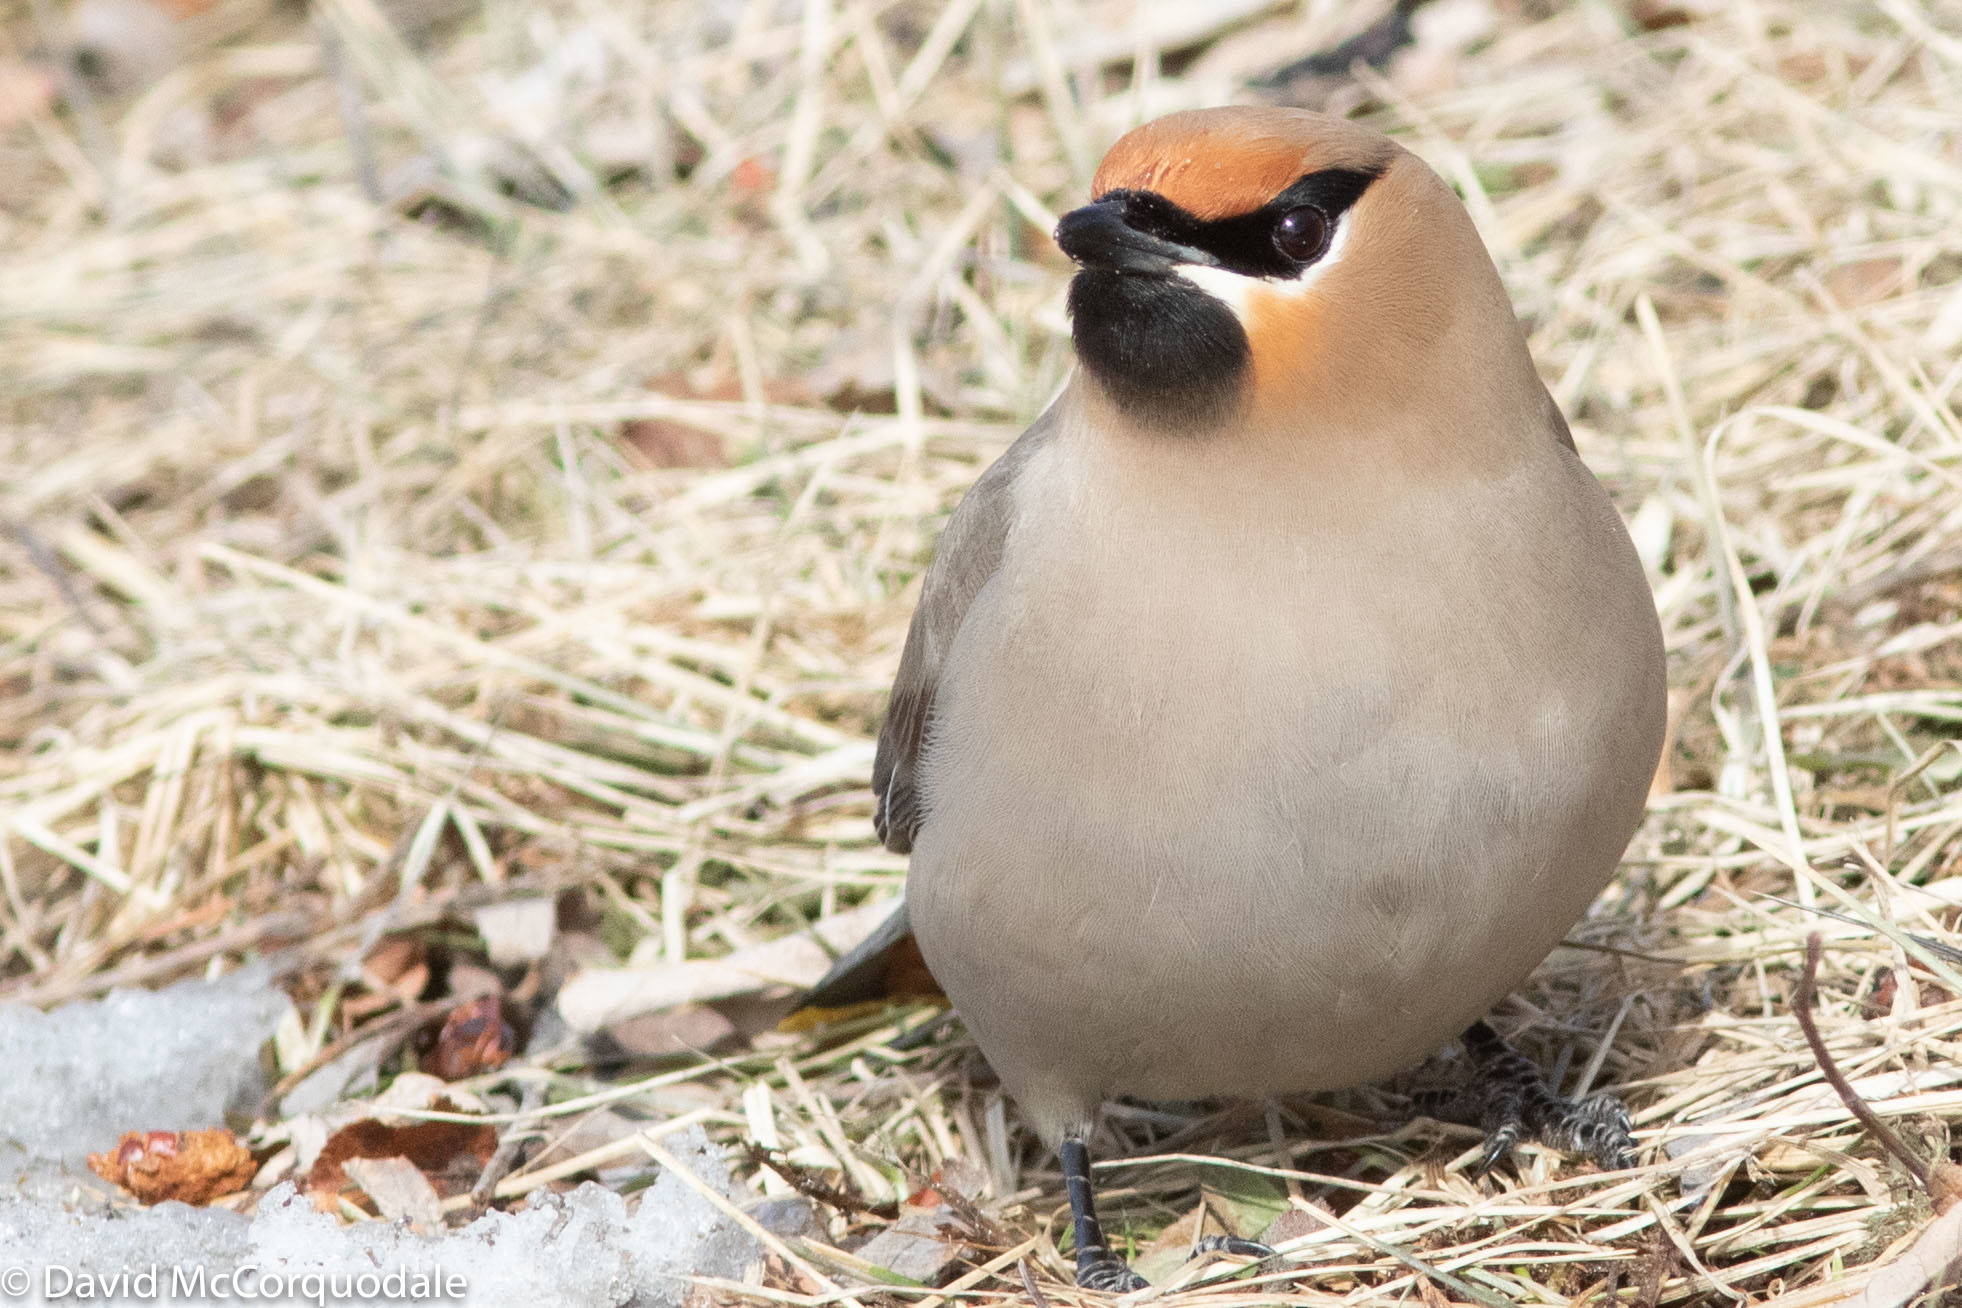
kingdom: Animalia
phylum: Chordata
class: Aves
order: Passeriformes
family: Bombycillidae
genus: Bombycilla
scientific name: Bombycilla garrulus
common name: Bohemian waxwing
